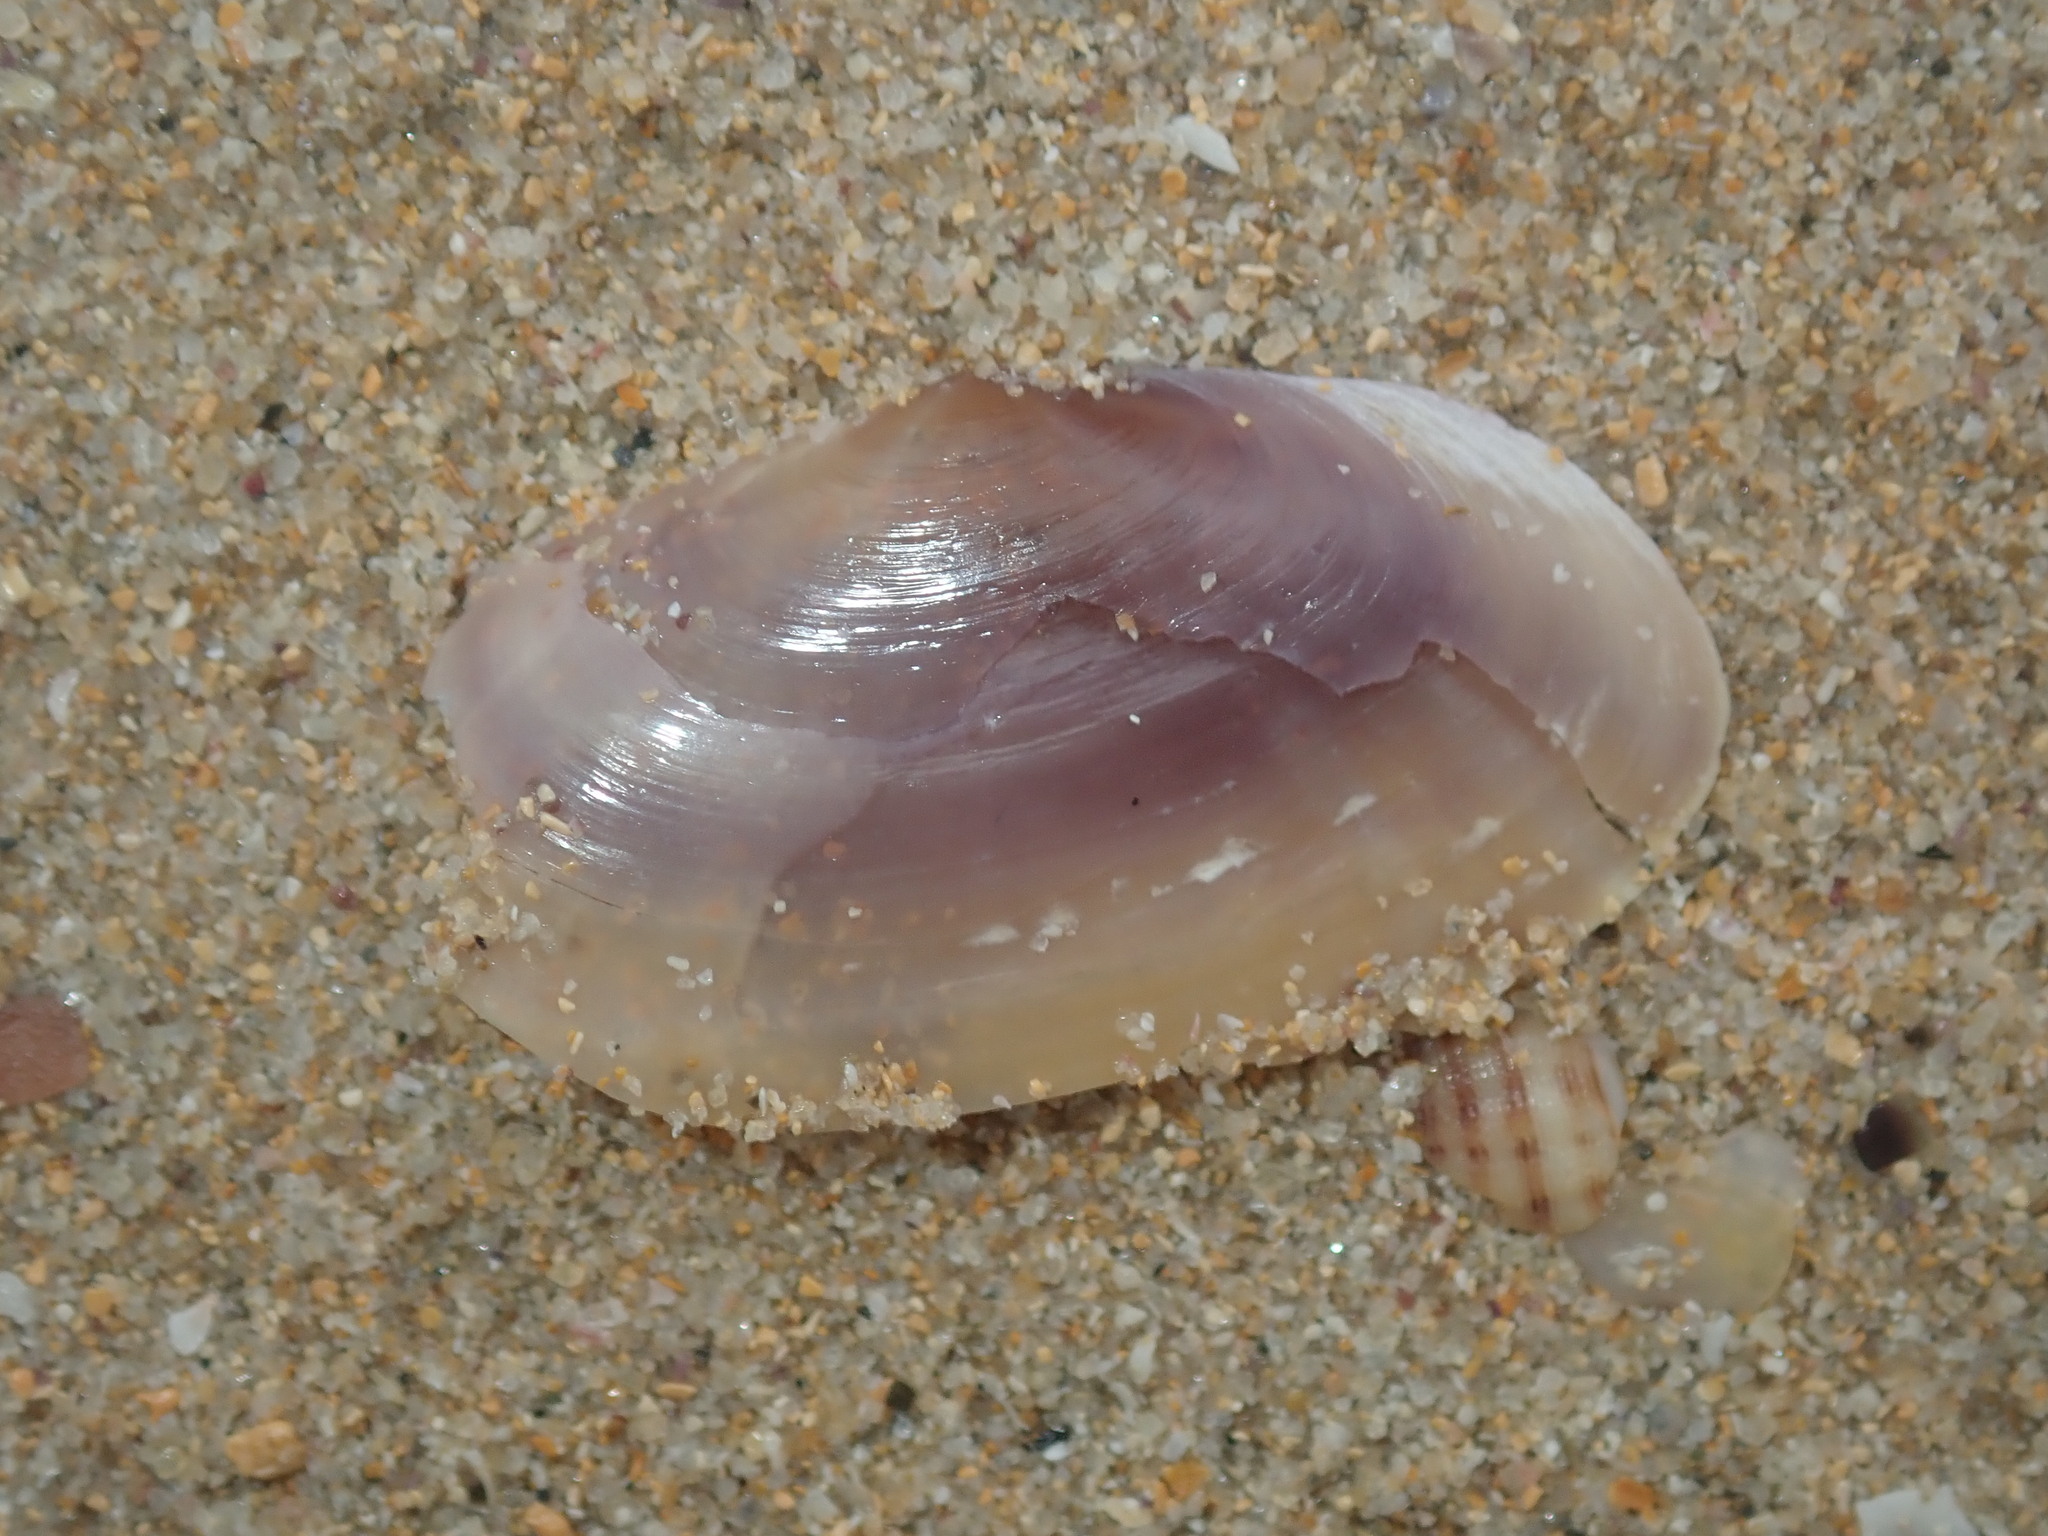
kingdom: Animalia
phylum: Mollusca
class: Bivalvia
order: Cardiida
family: Psammobiidae
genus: Hiatula
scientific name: Hiatula alba
